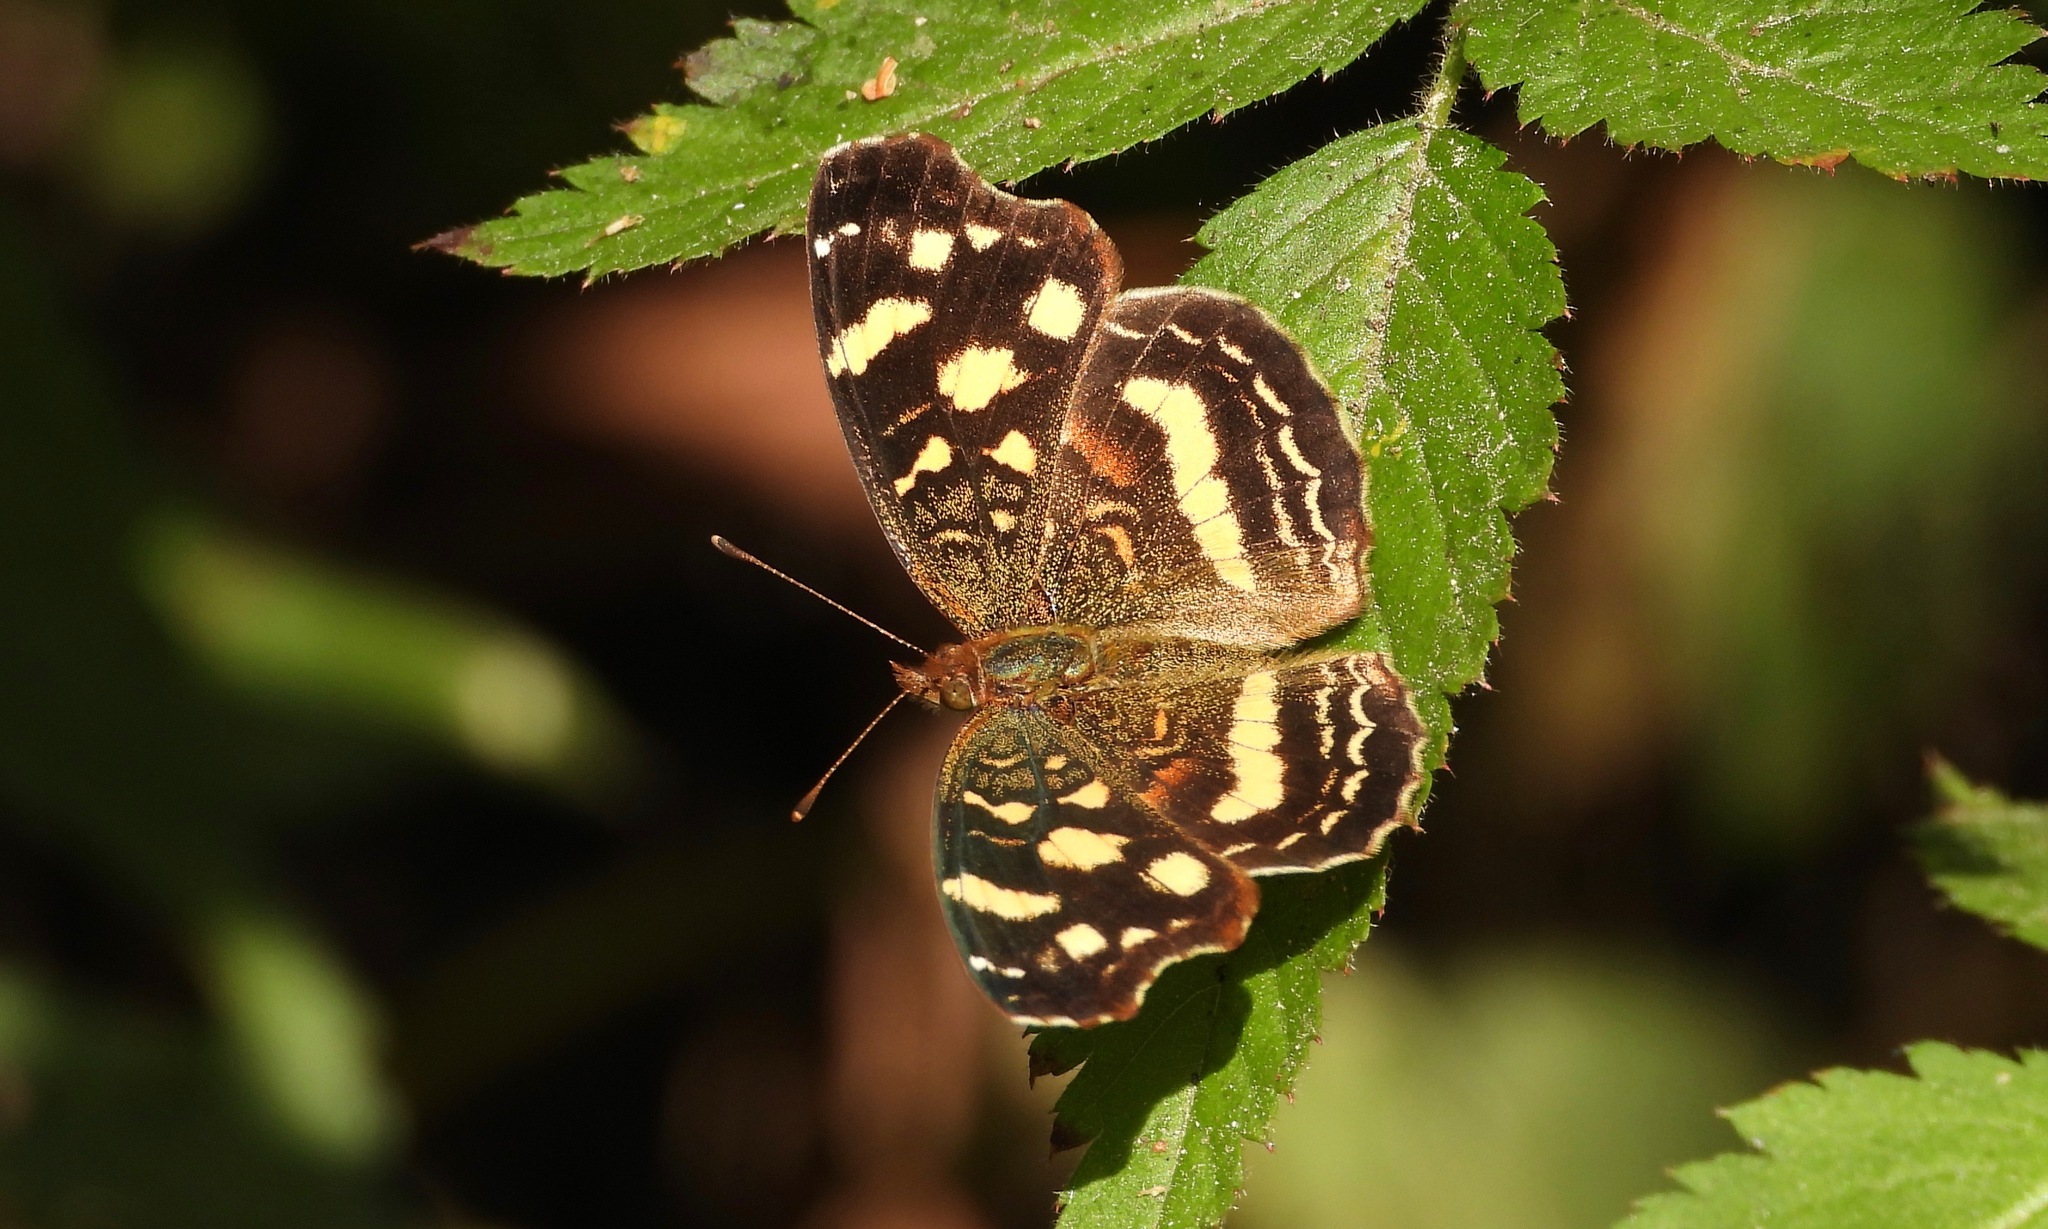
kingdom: Animalia
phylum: Arthropoda
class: Insecta
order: Lepidoptera
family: Nymphalidae
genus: Anthanassa
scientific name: Anthanassa tulcis
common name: Pale-banded crescent
